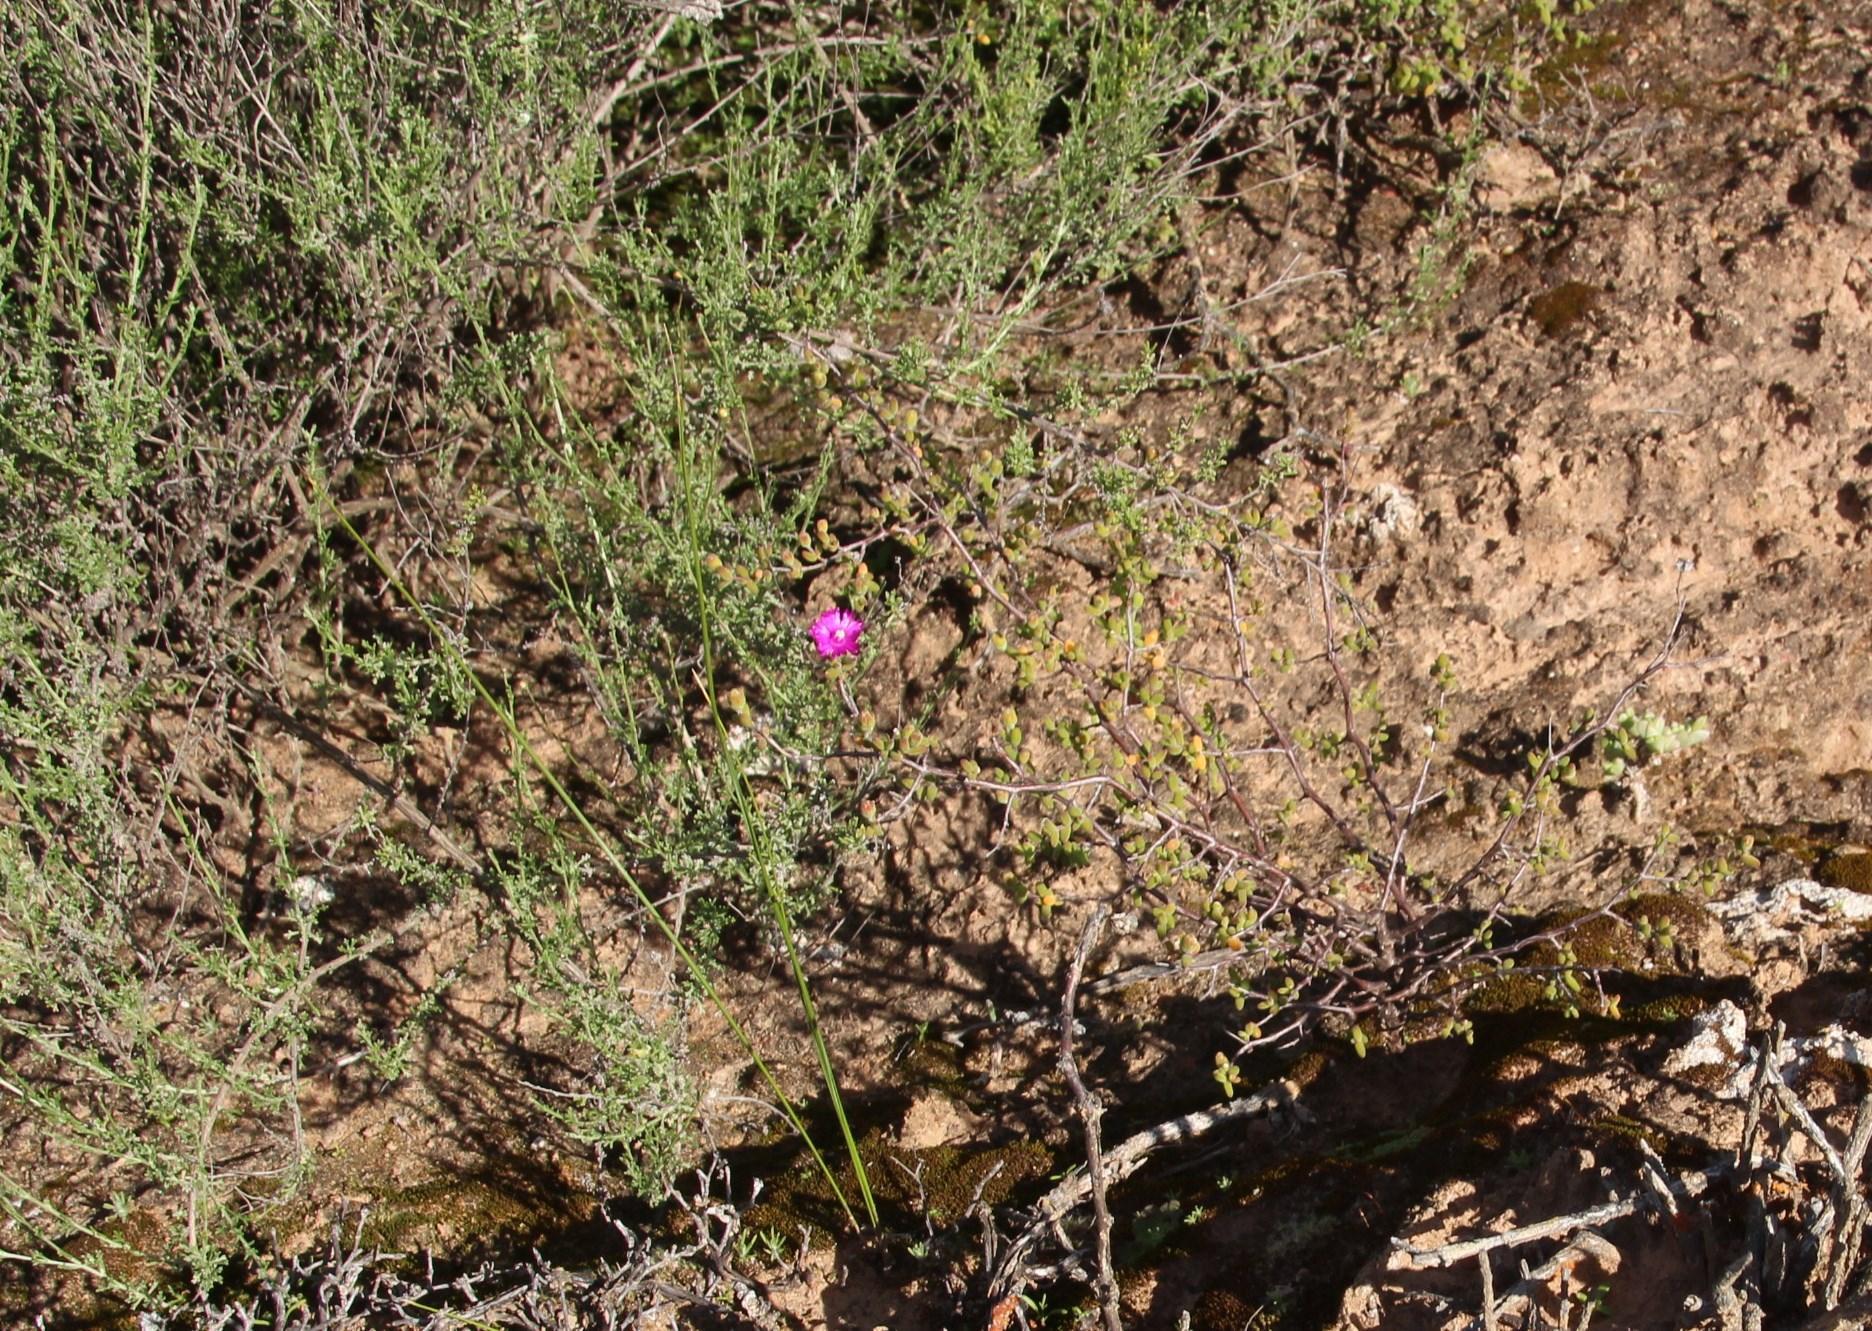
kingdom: Plantae
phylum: Tracheophyta
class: Magnoliopsida
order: Caryophyllales
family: Aizoaceae
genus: Drosanthemum
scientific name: Drosanthemum karrooense
